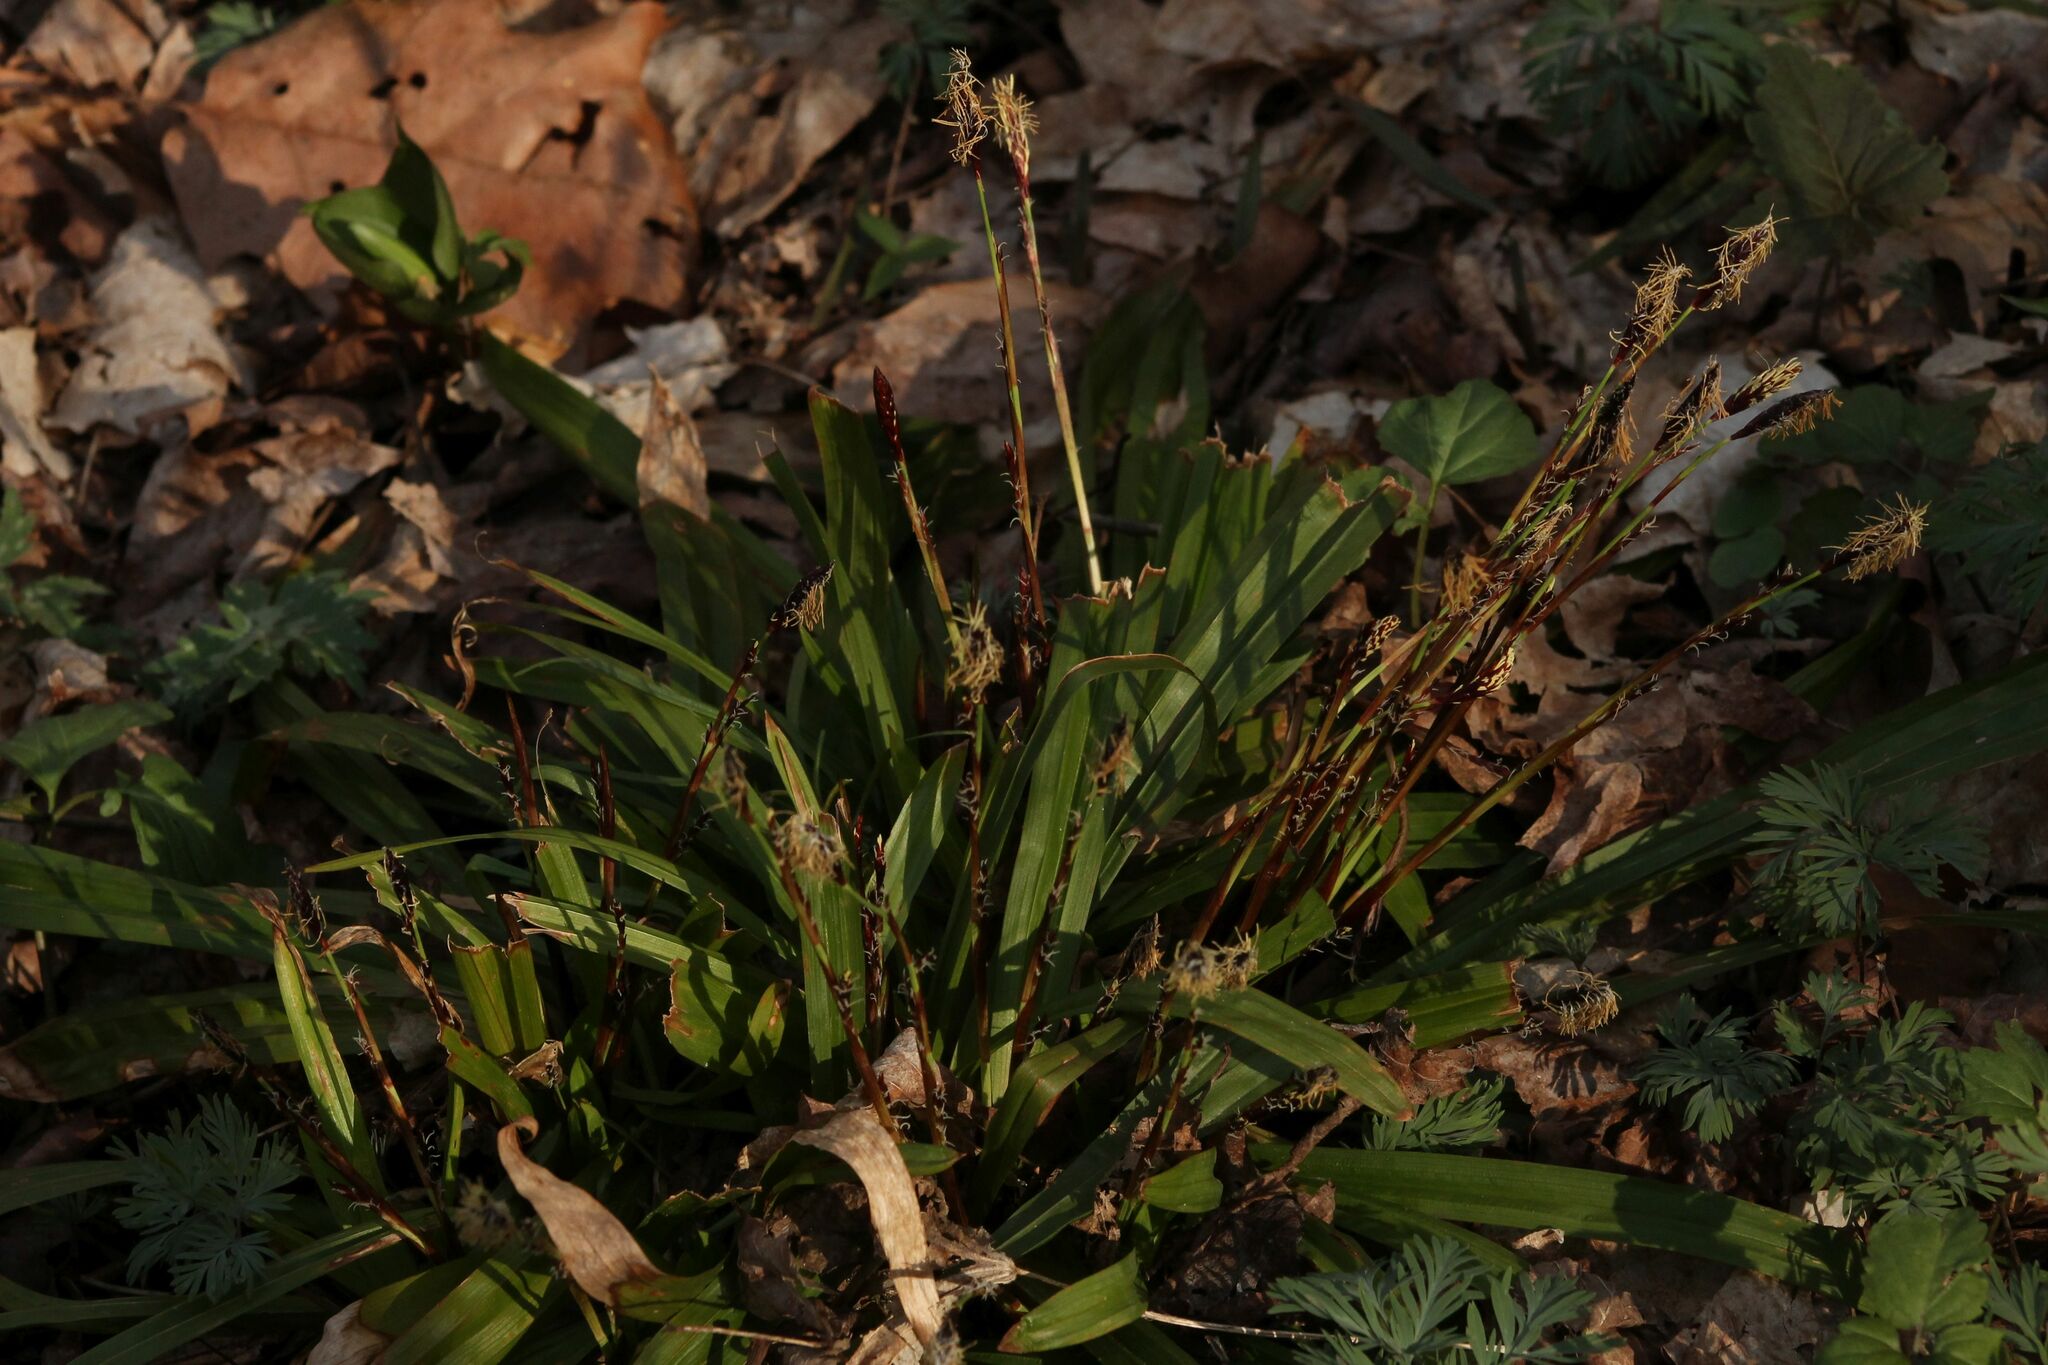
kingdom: Plantae
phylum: Tracheophyta
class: Liliopsida
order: Poales
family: Cyperaceae
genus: Carex
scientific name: Carex plantaginea
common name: Plantain-leaved sedge
